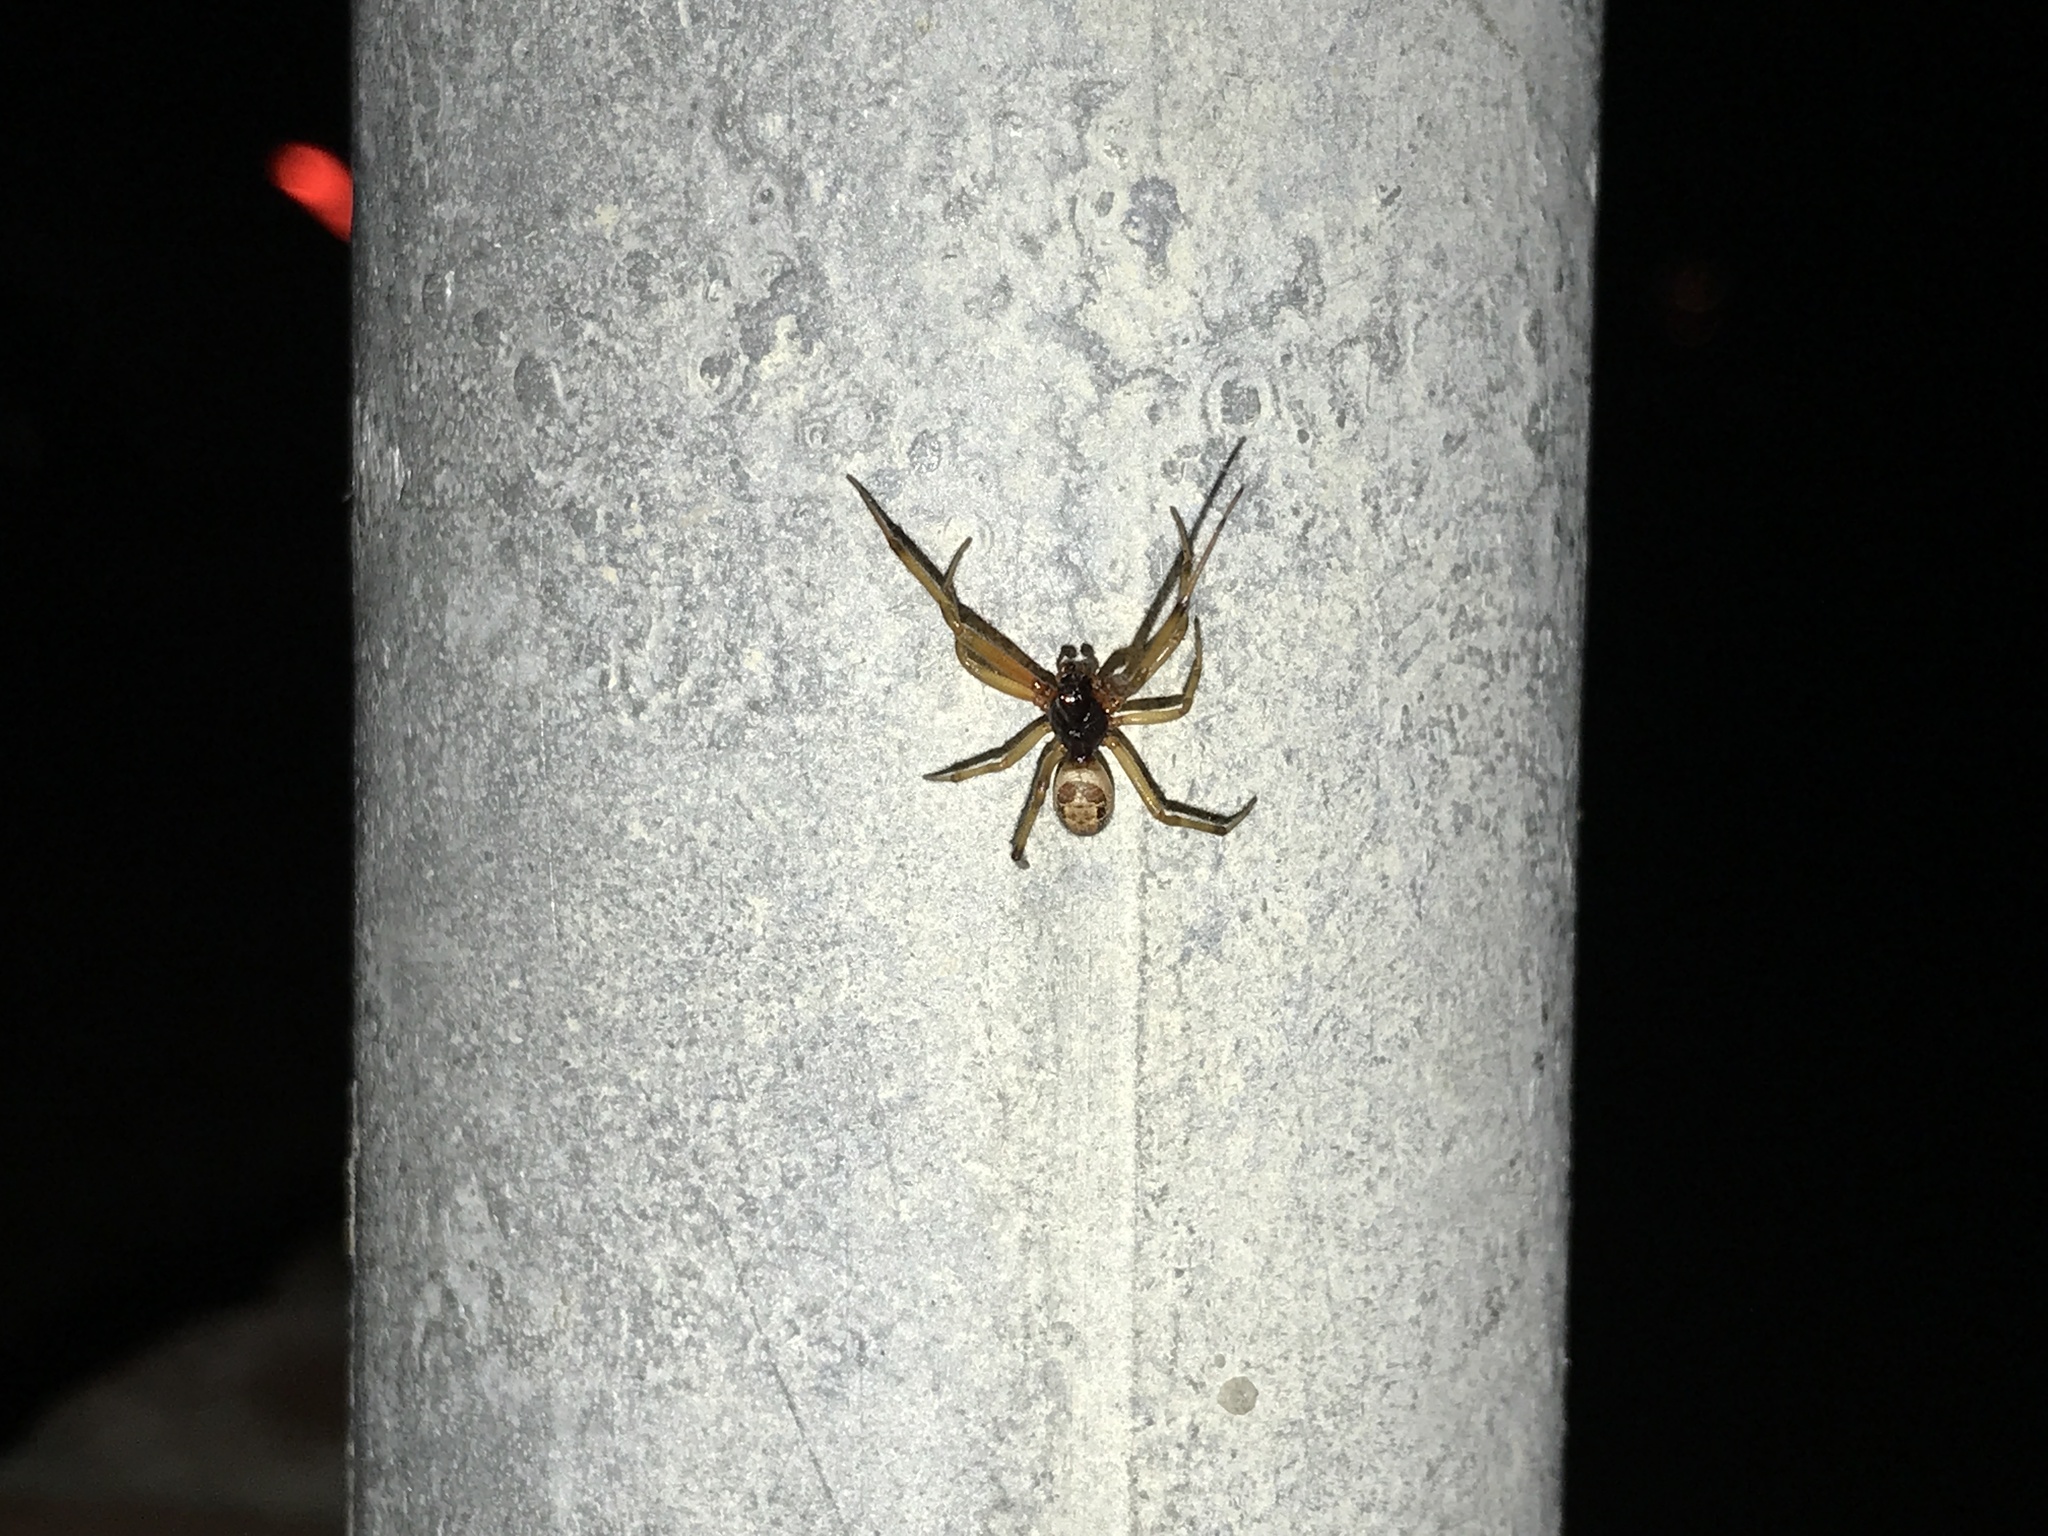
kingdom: Animalia
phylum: Arthropoda
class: Arachnida
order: Araneae
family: Theridiidae
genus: Steatoda
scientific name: Steatoda nobilis
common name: Cobweb weaver
